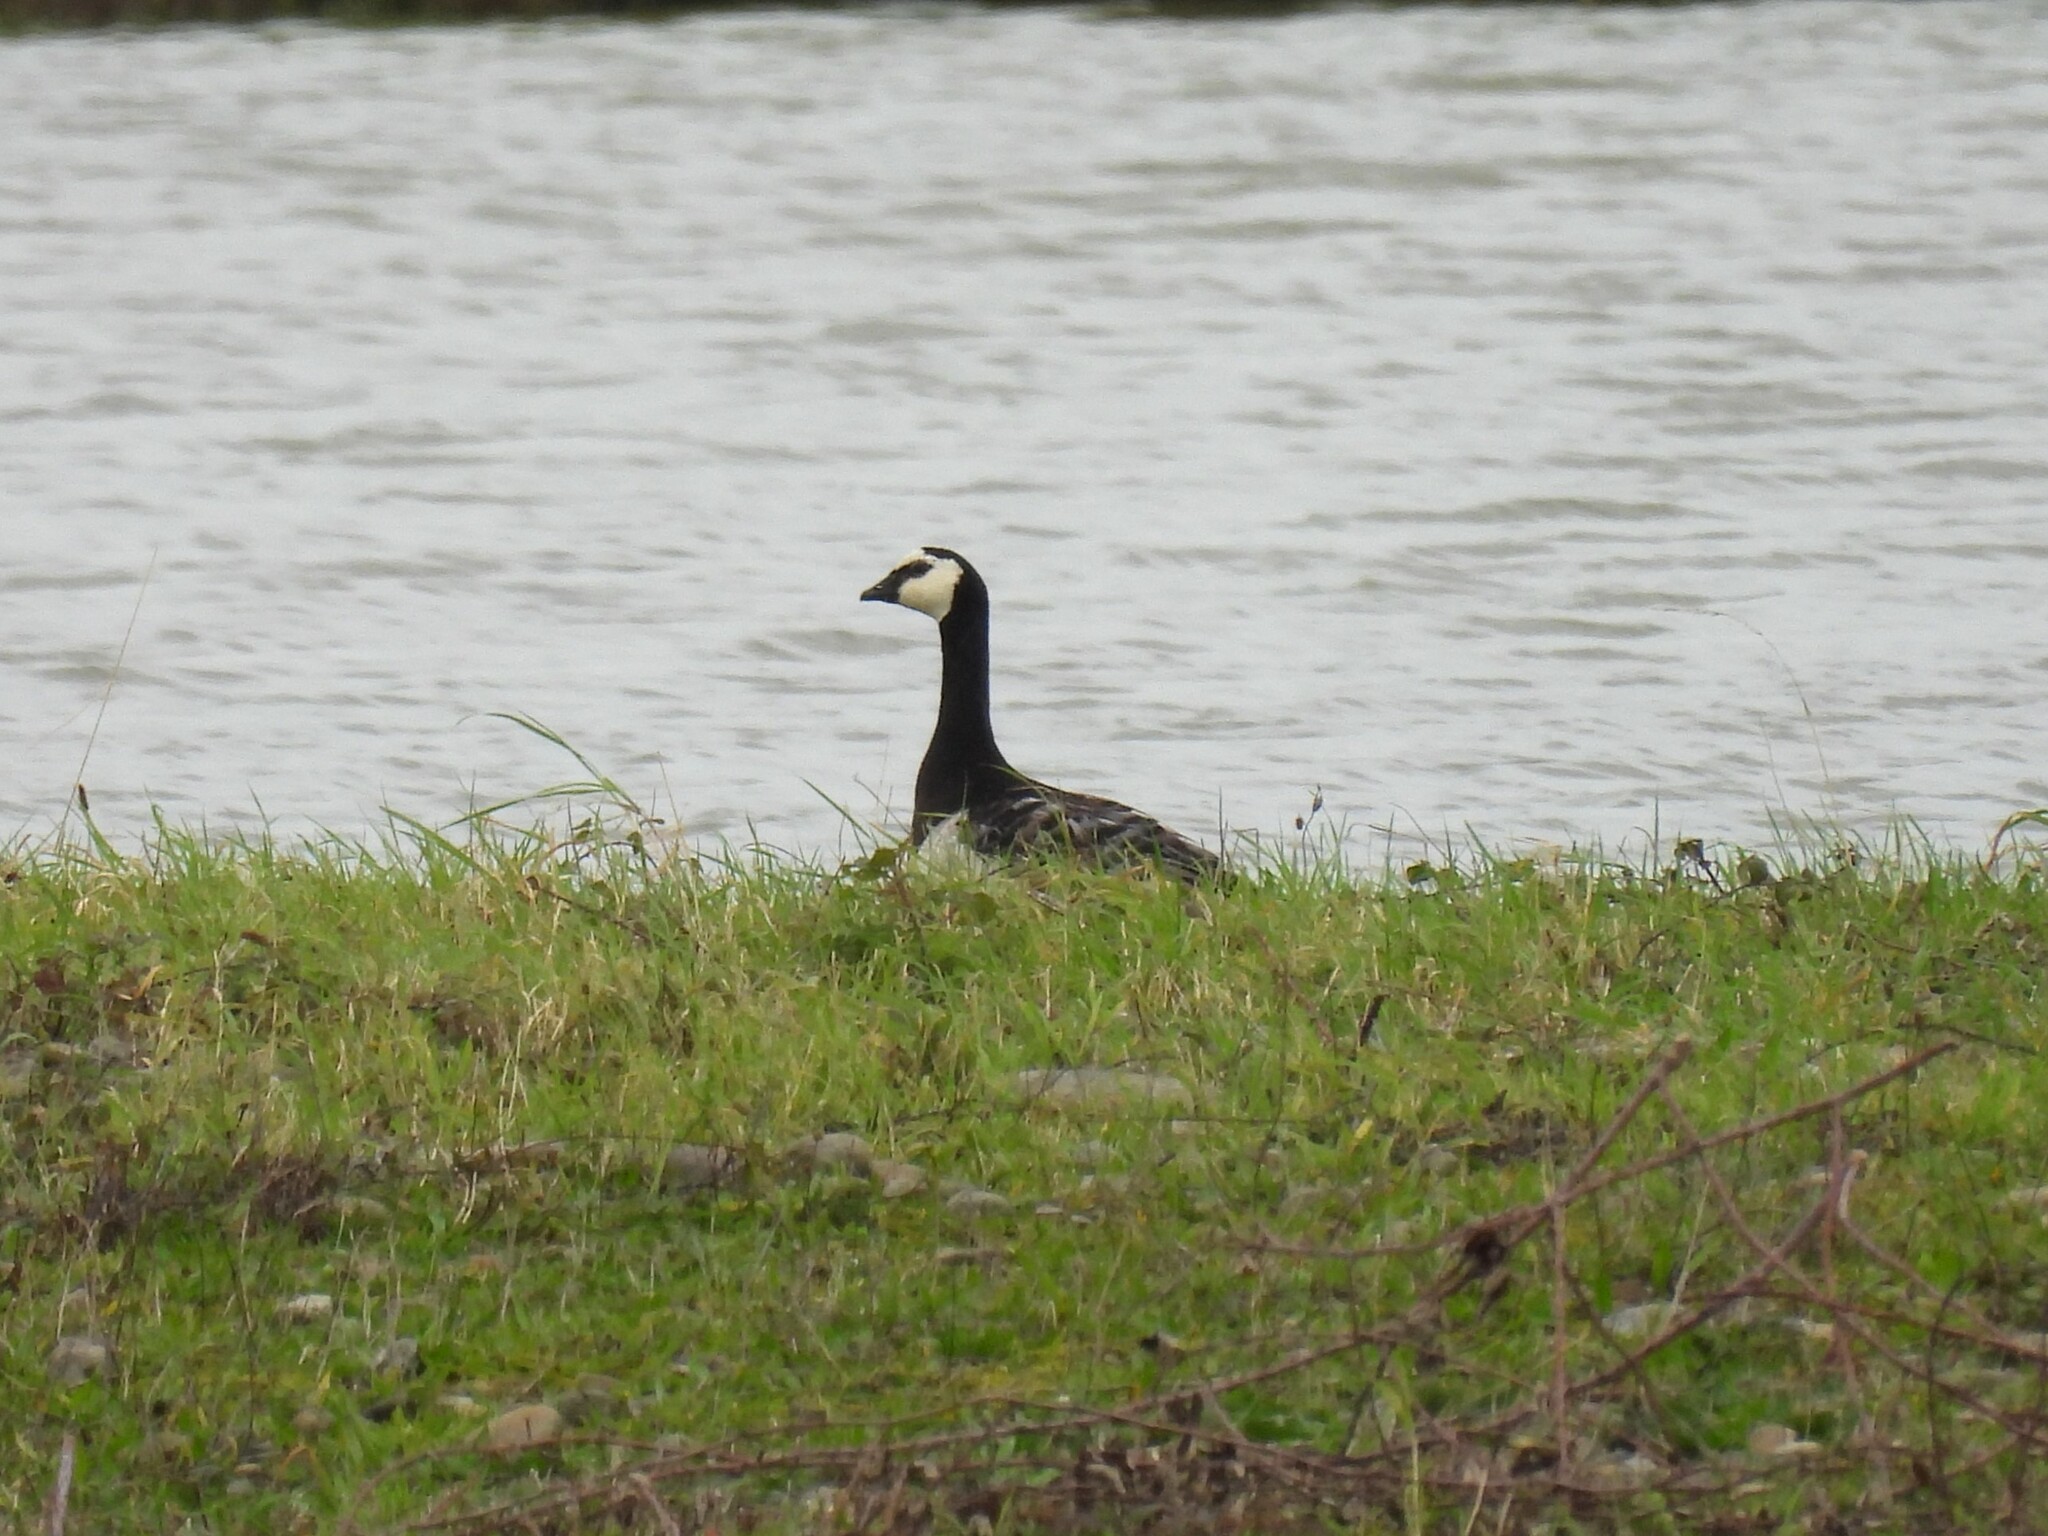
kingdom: Animalia
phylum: Chordata
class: Aves
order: Anseriformes
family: Anatidae
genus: Branta
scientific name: Branta leucopsis
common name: Barnacle goose
